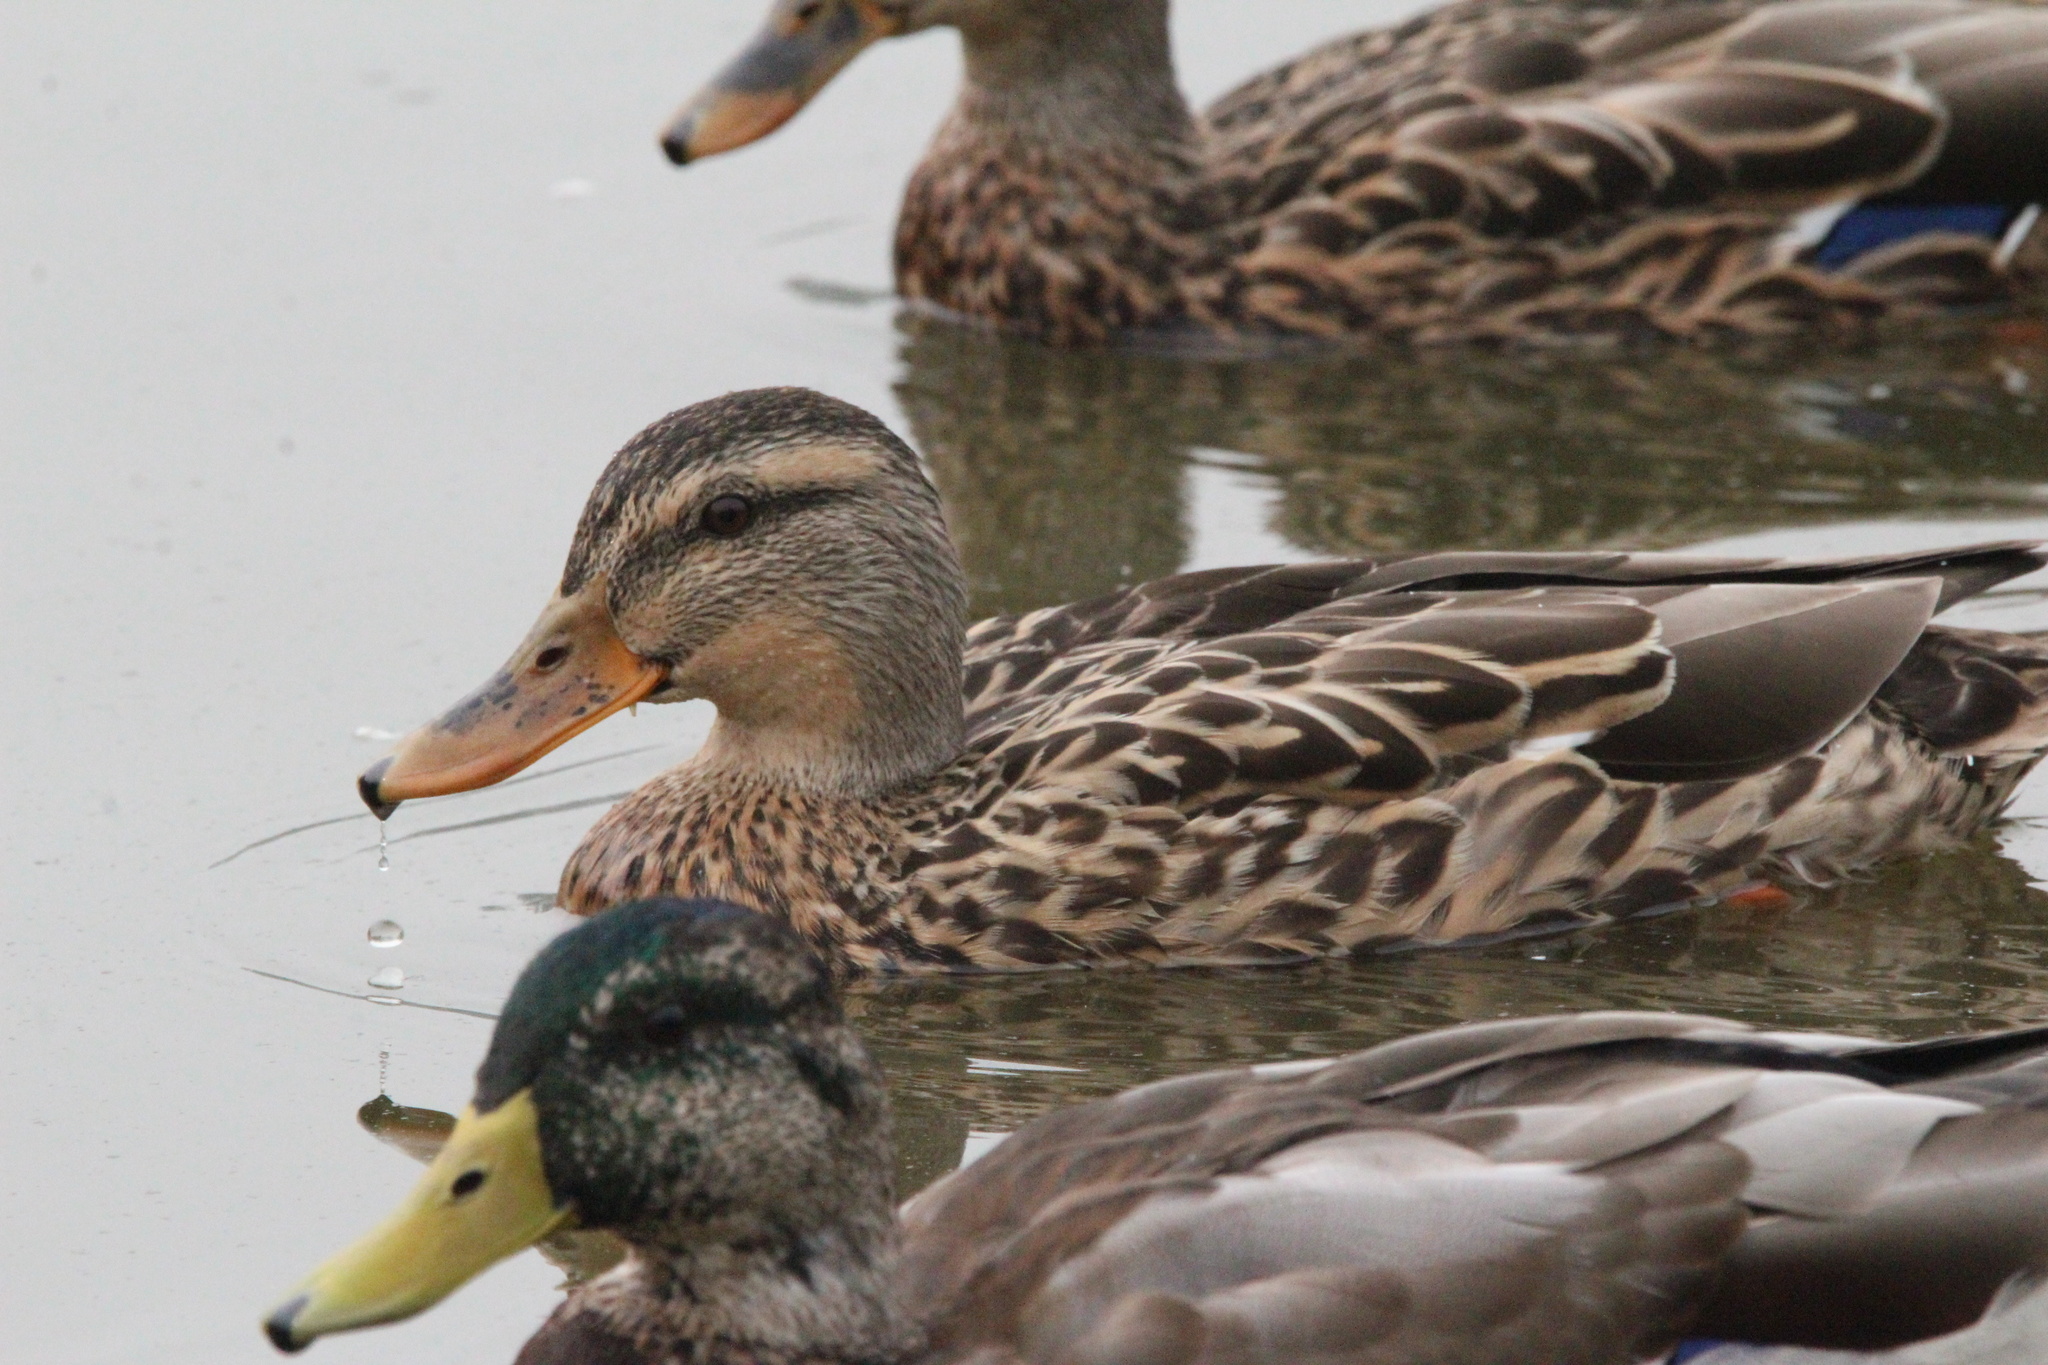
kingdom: Animalia
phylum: Chordata
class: Aves
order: Anseriformes
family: Anatidae
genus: Anas
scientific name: Anas platyrhynchos
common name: Mallard
